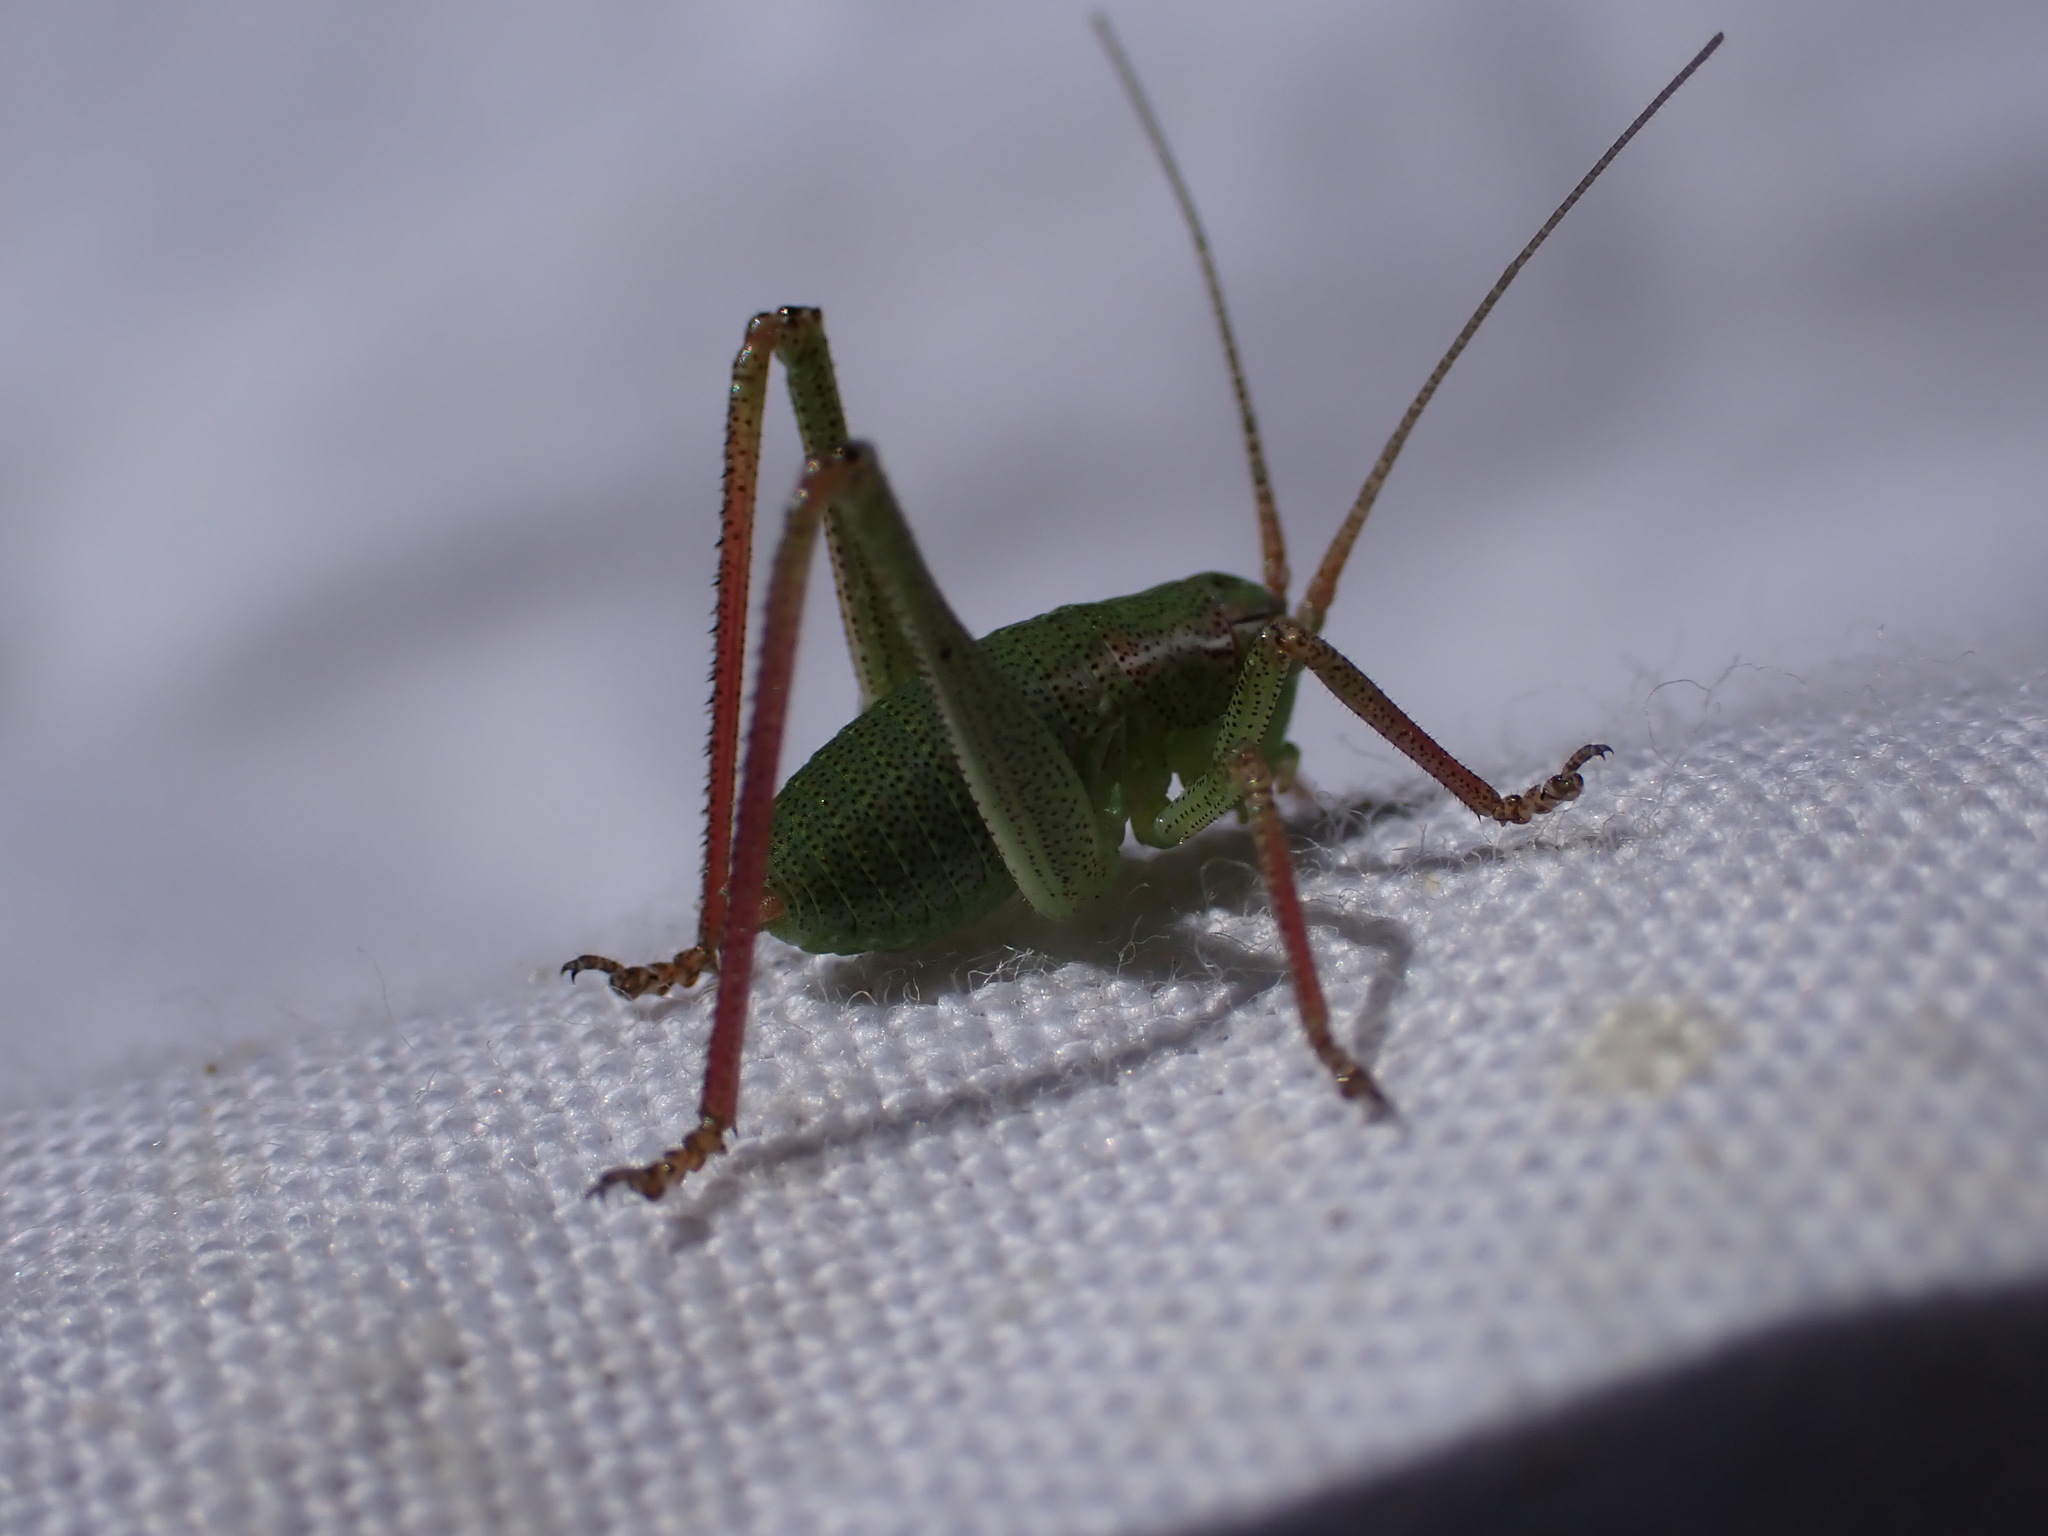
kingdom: Animalia
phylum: Arthropoda
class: Insecta
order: Orthoptera
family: Tettigoniidae
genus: Barbitistes
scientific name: Barbitistes fischeri
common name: Southern saw-tailed bush-cricket
